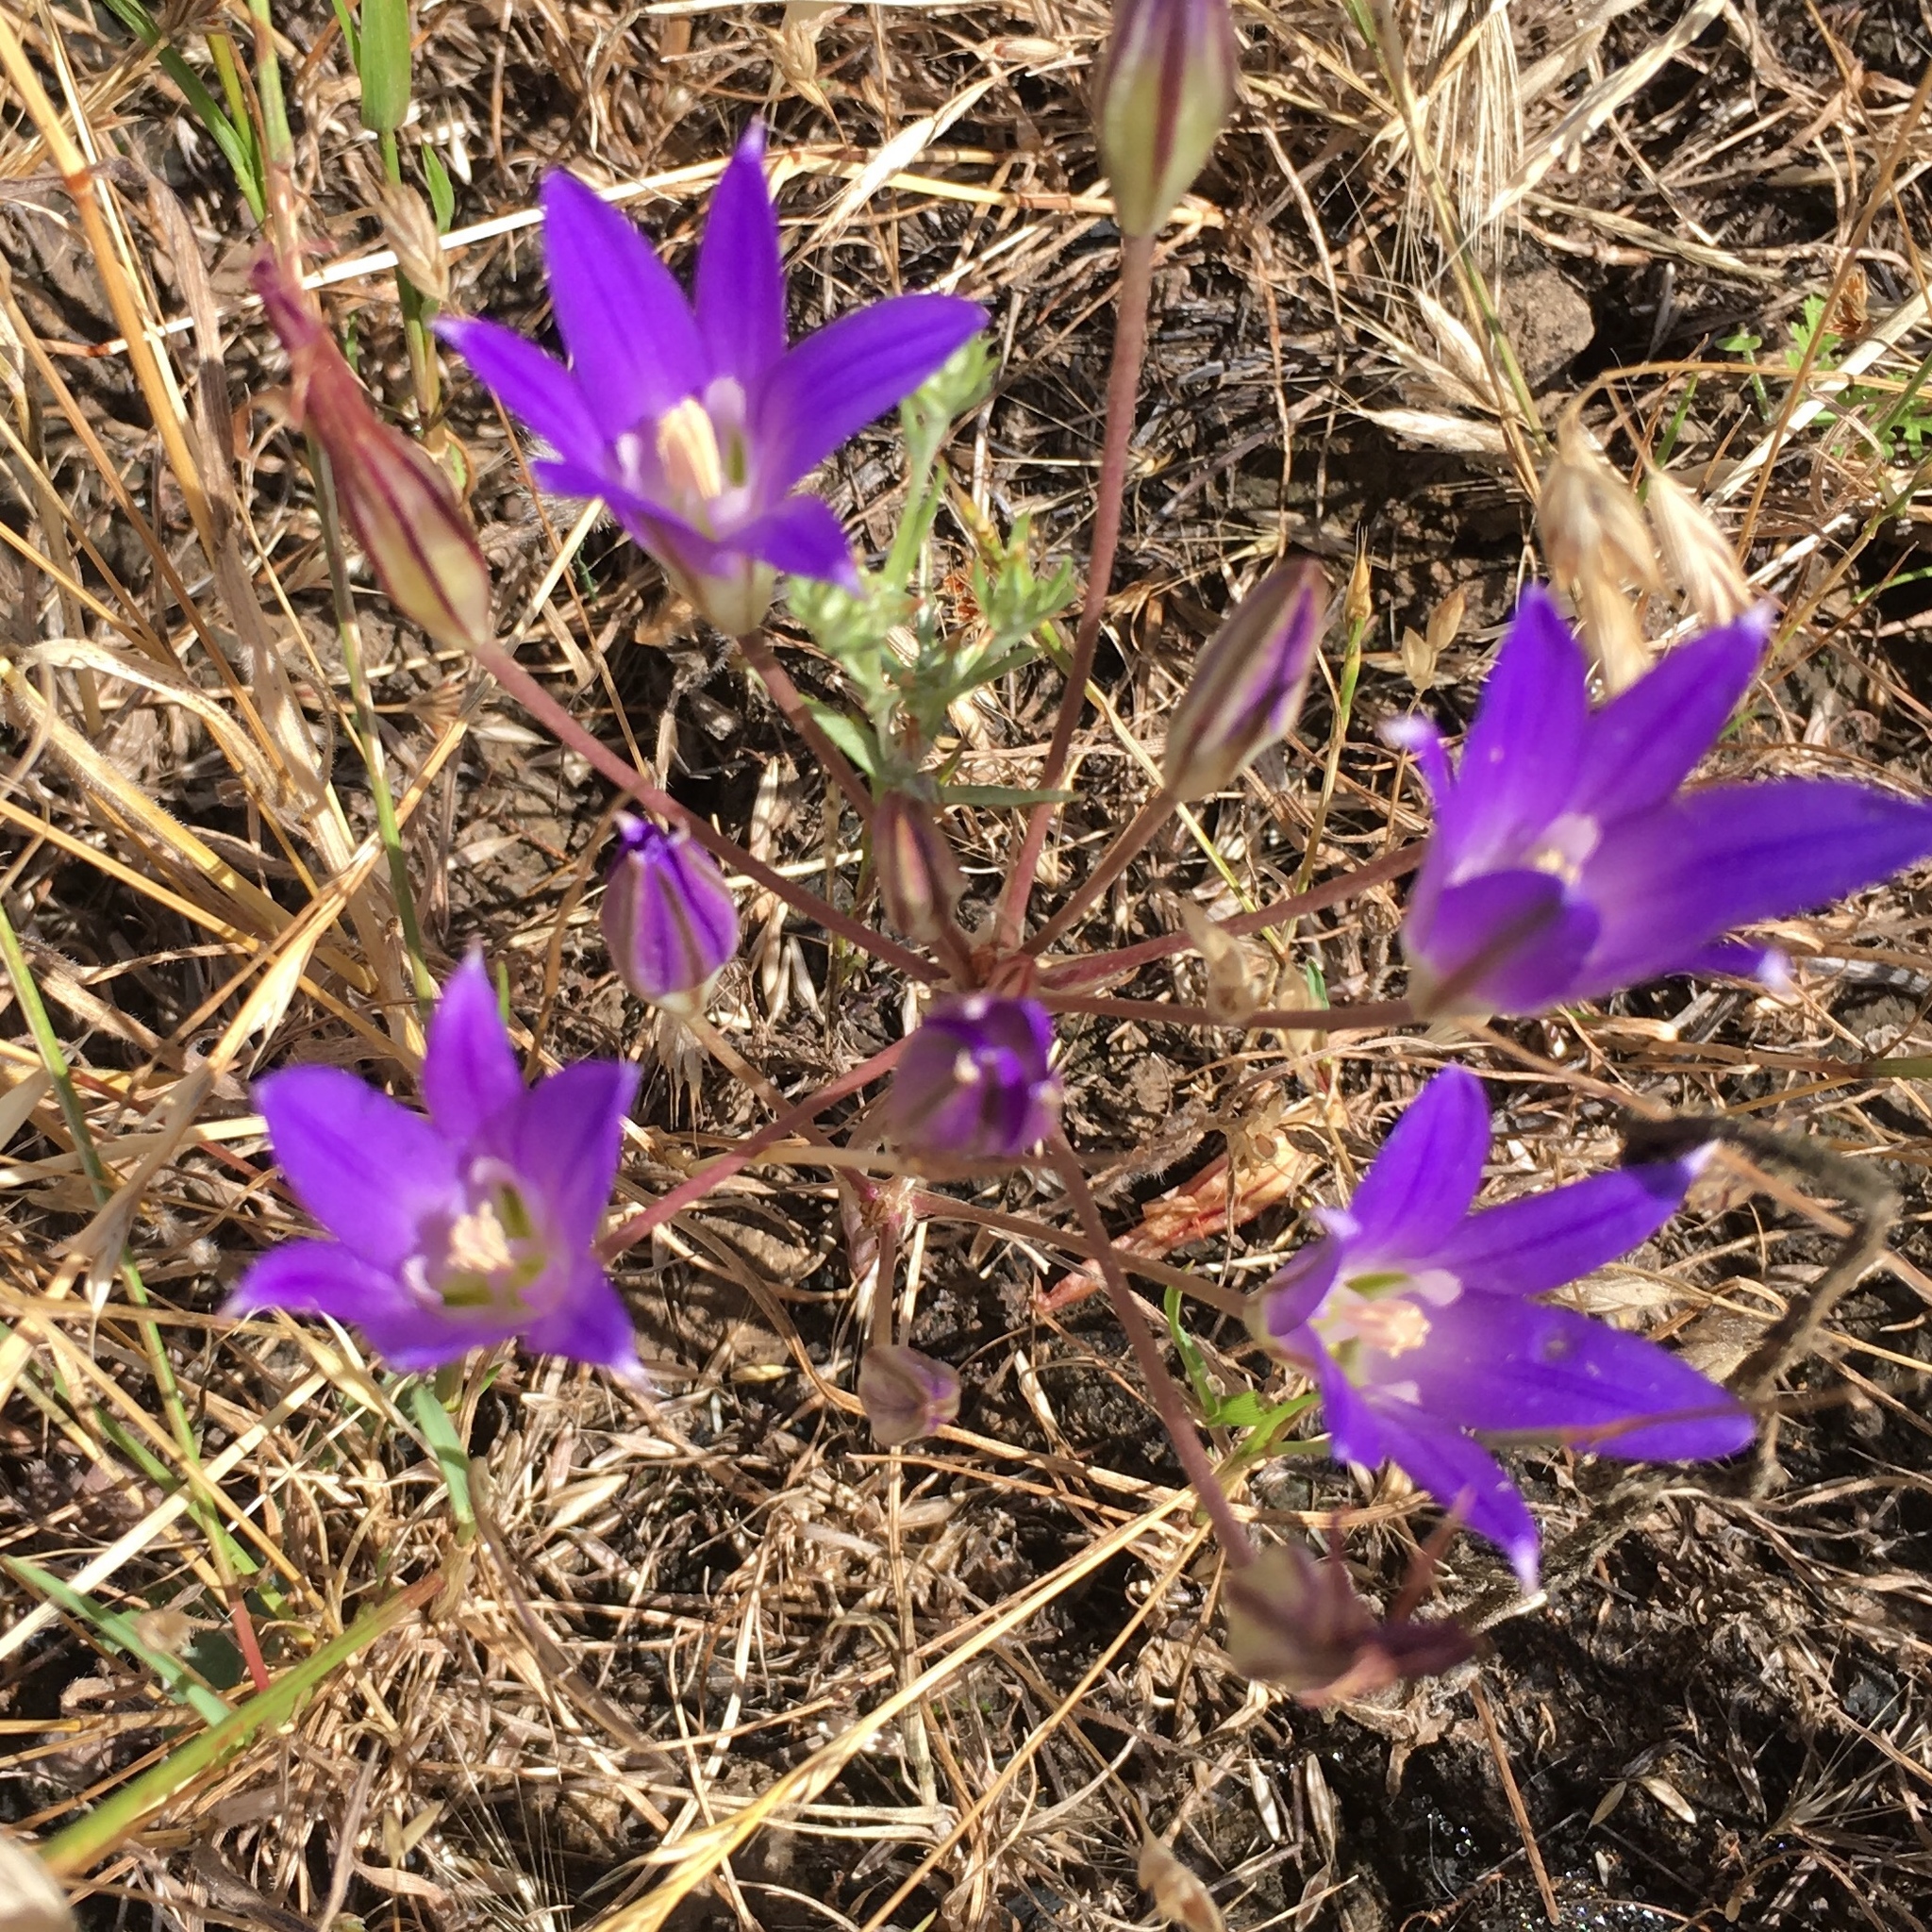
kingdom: Plantae
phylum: Tracheophyta
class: Liliopsida
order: Asparagales
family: Asparagaceae
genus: Brodiaea
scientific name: Brodiaea elegans
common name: Elegant cluster-lily
